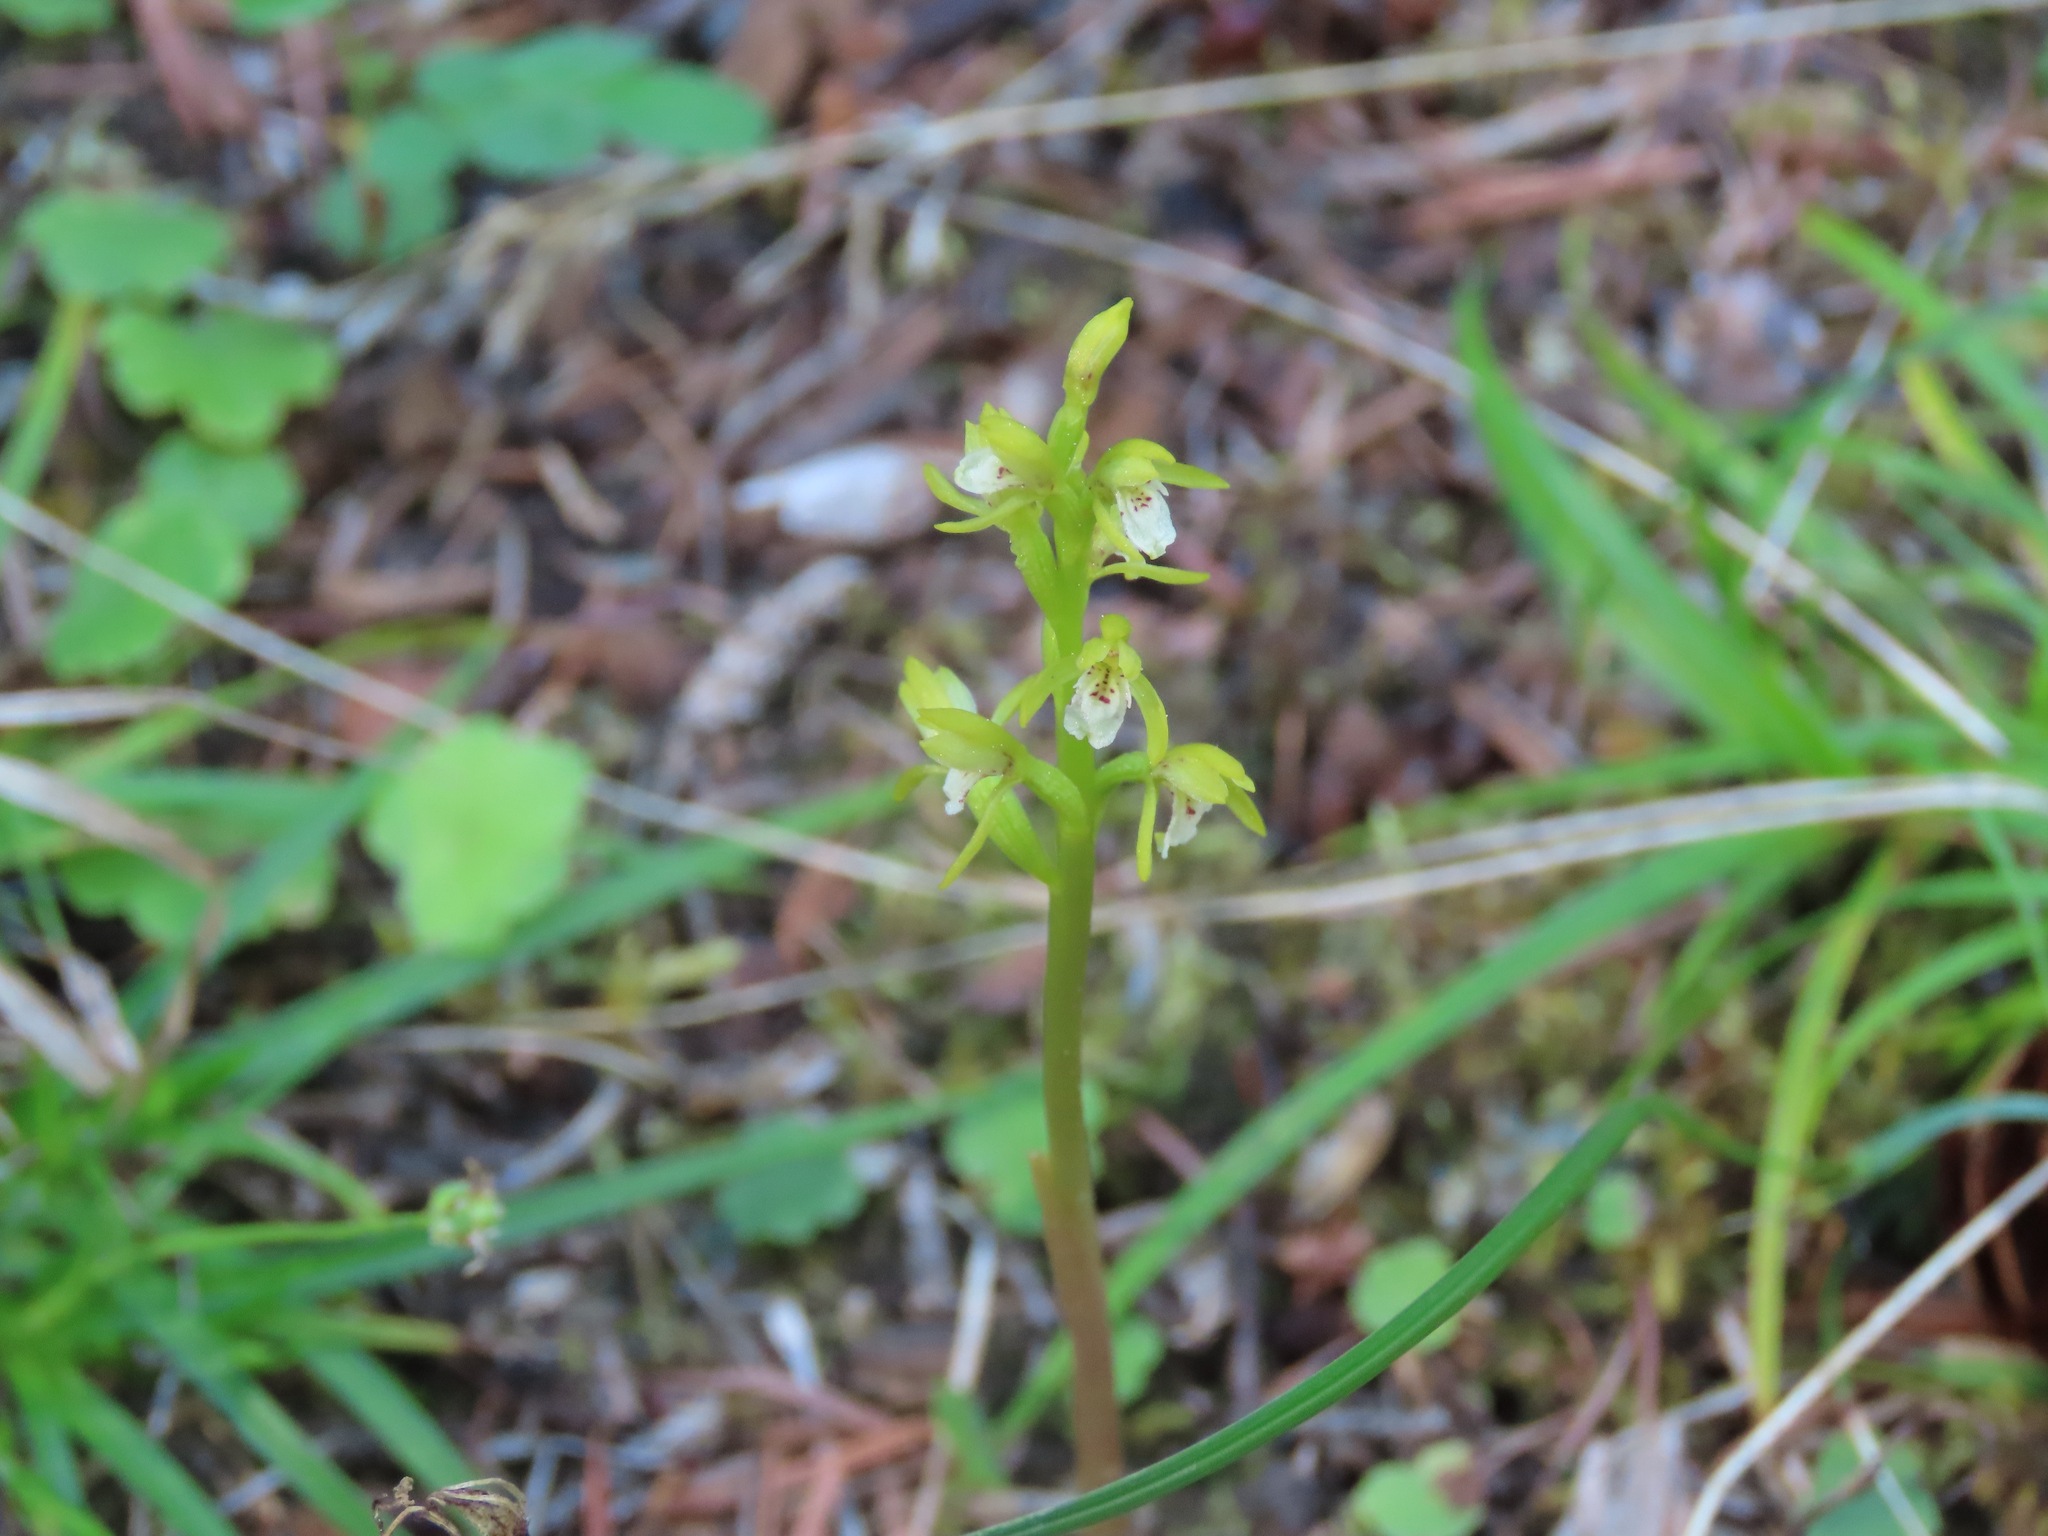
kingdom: Plantae
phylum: Tracheophyta
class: Liliopsida
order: Asparagales
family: Orchidaceae
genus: Corallorhiza
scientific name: Corallorhiza trifida
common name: Yellow coralroot
